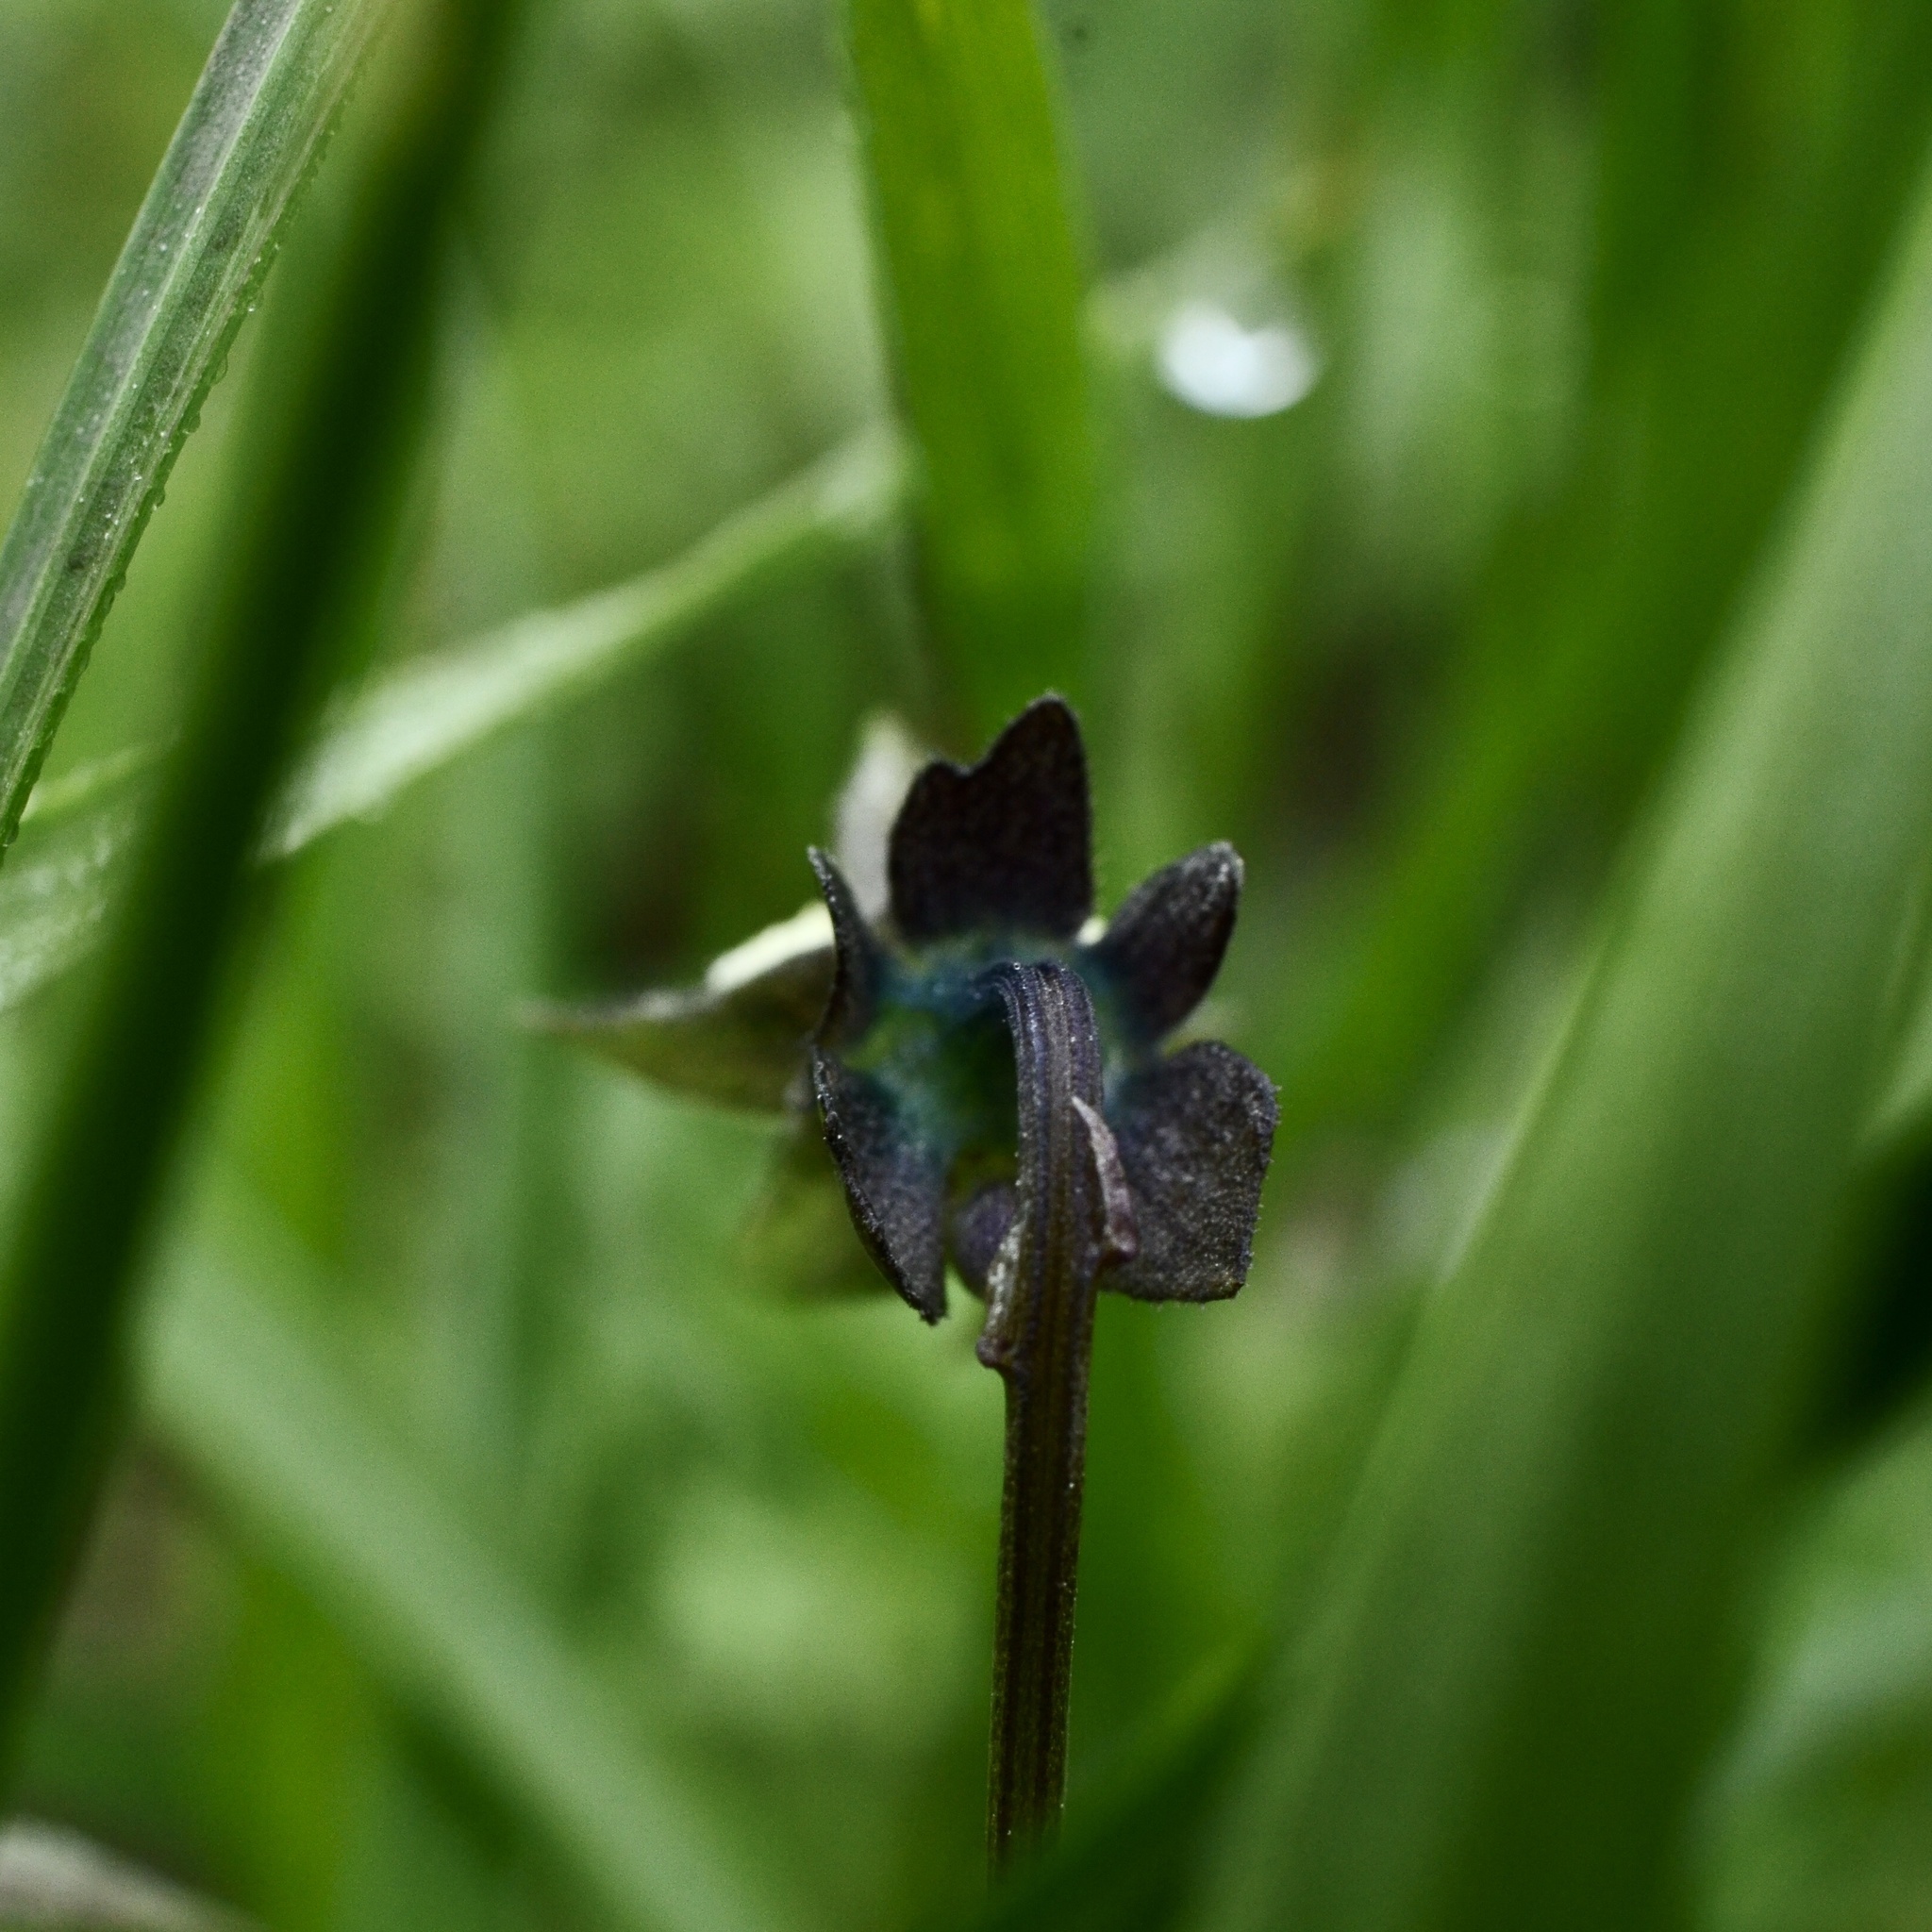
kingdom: Plantae
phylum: Tracheophyta
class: Magnoliopsida
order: Malpighiales
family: Violaceae
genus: Viola
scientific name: Viola arvensis
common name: Field pansy
